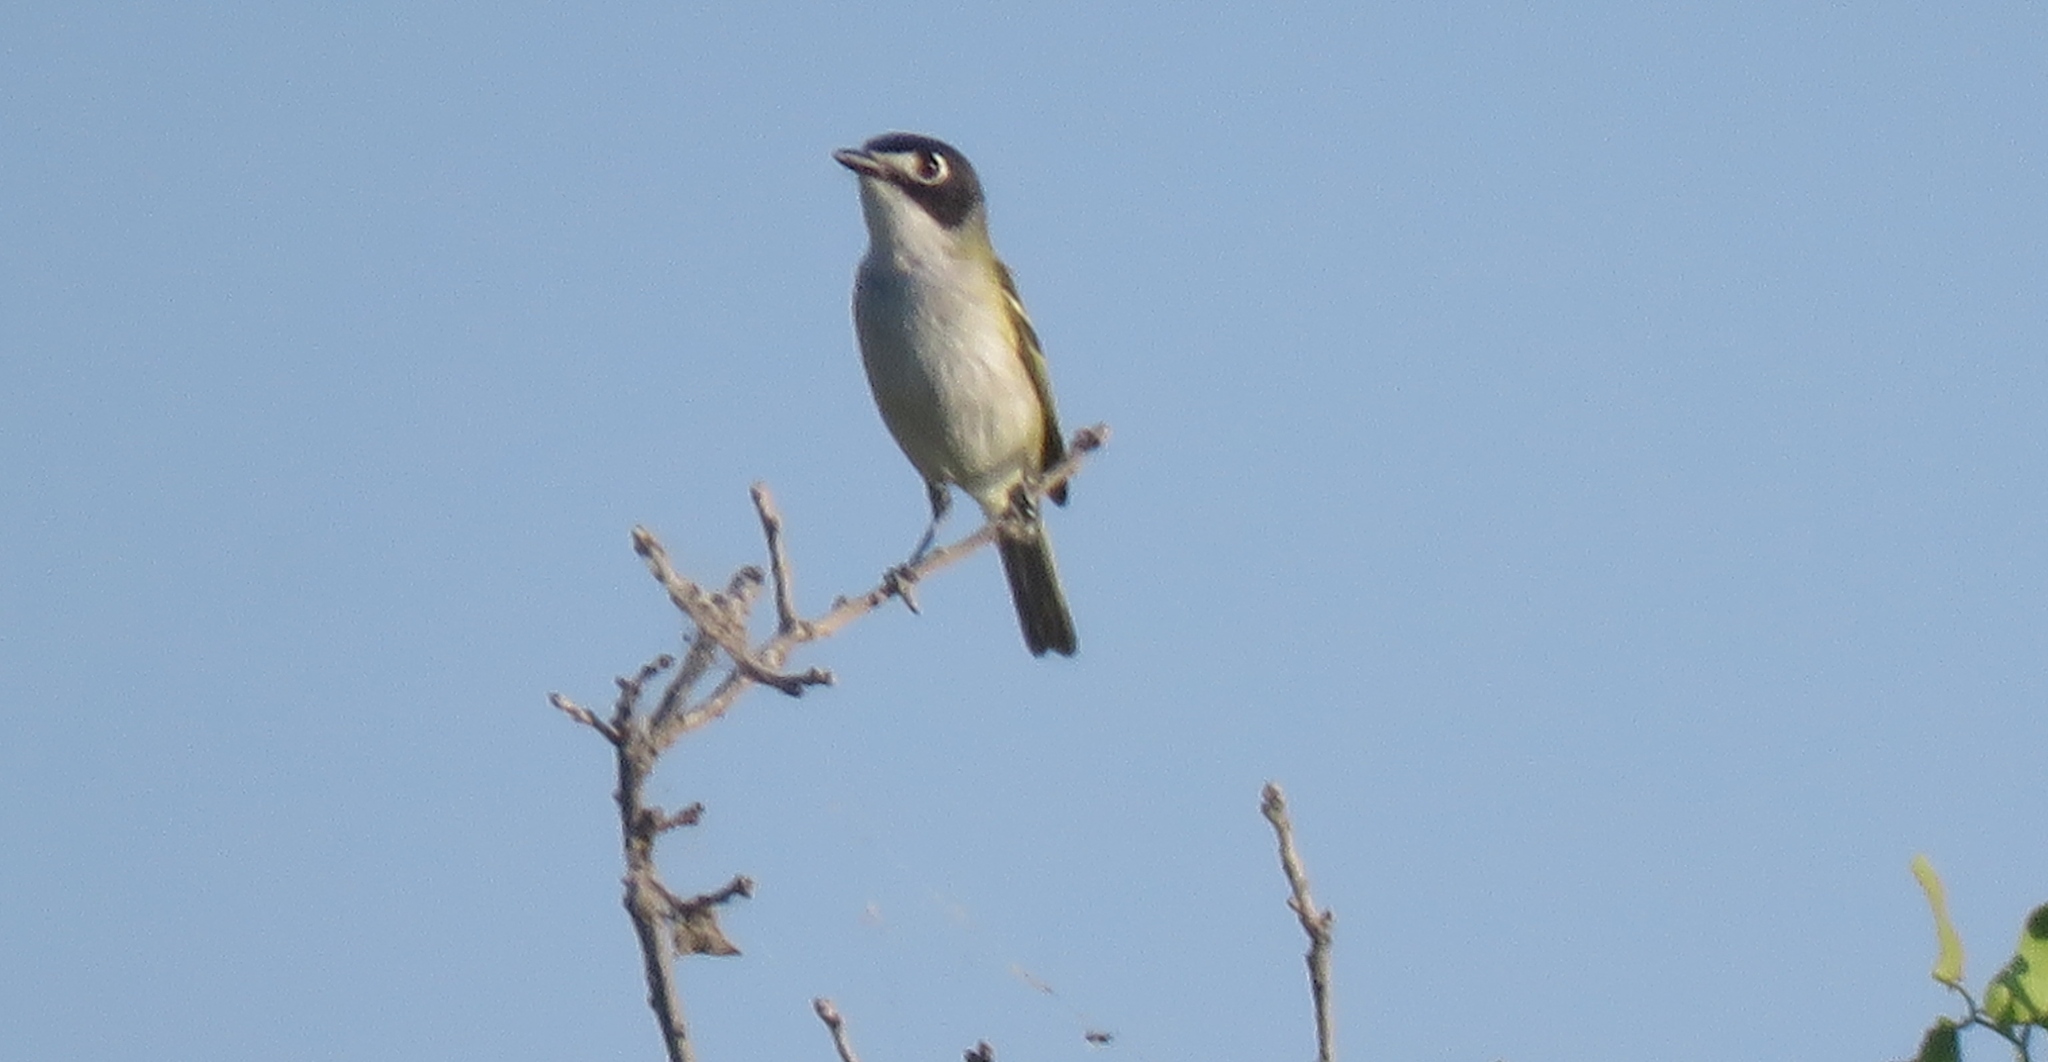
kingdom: Animalia
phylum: Chordata
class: Aves
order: Passeriformes
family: Vireonidae
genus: Vireo
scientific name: Vireo atricapilla
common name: Black-capped vireo
